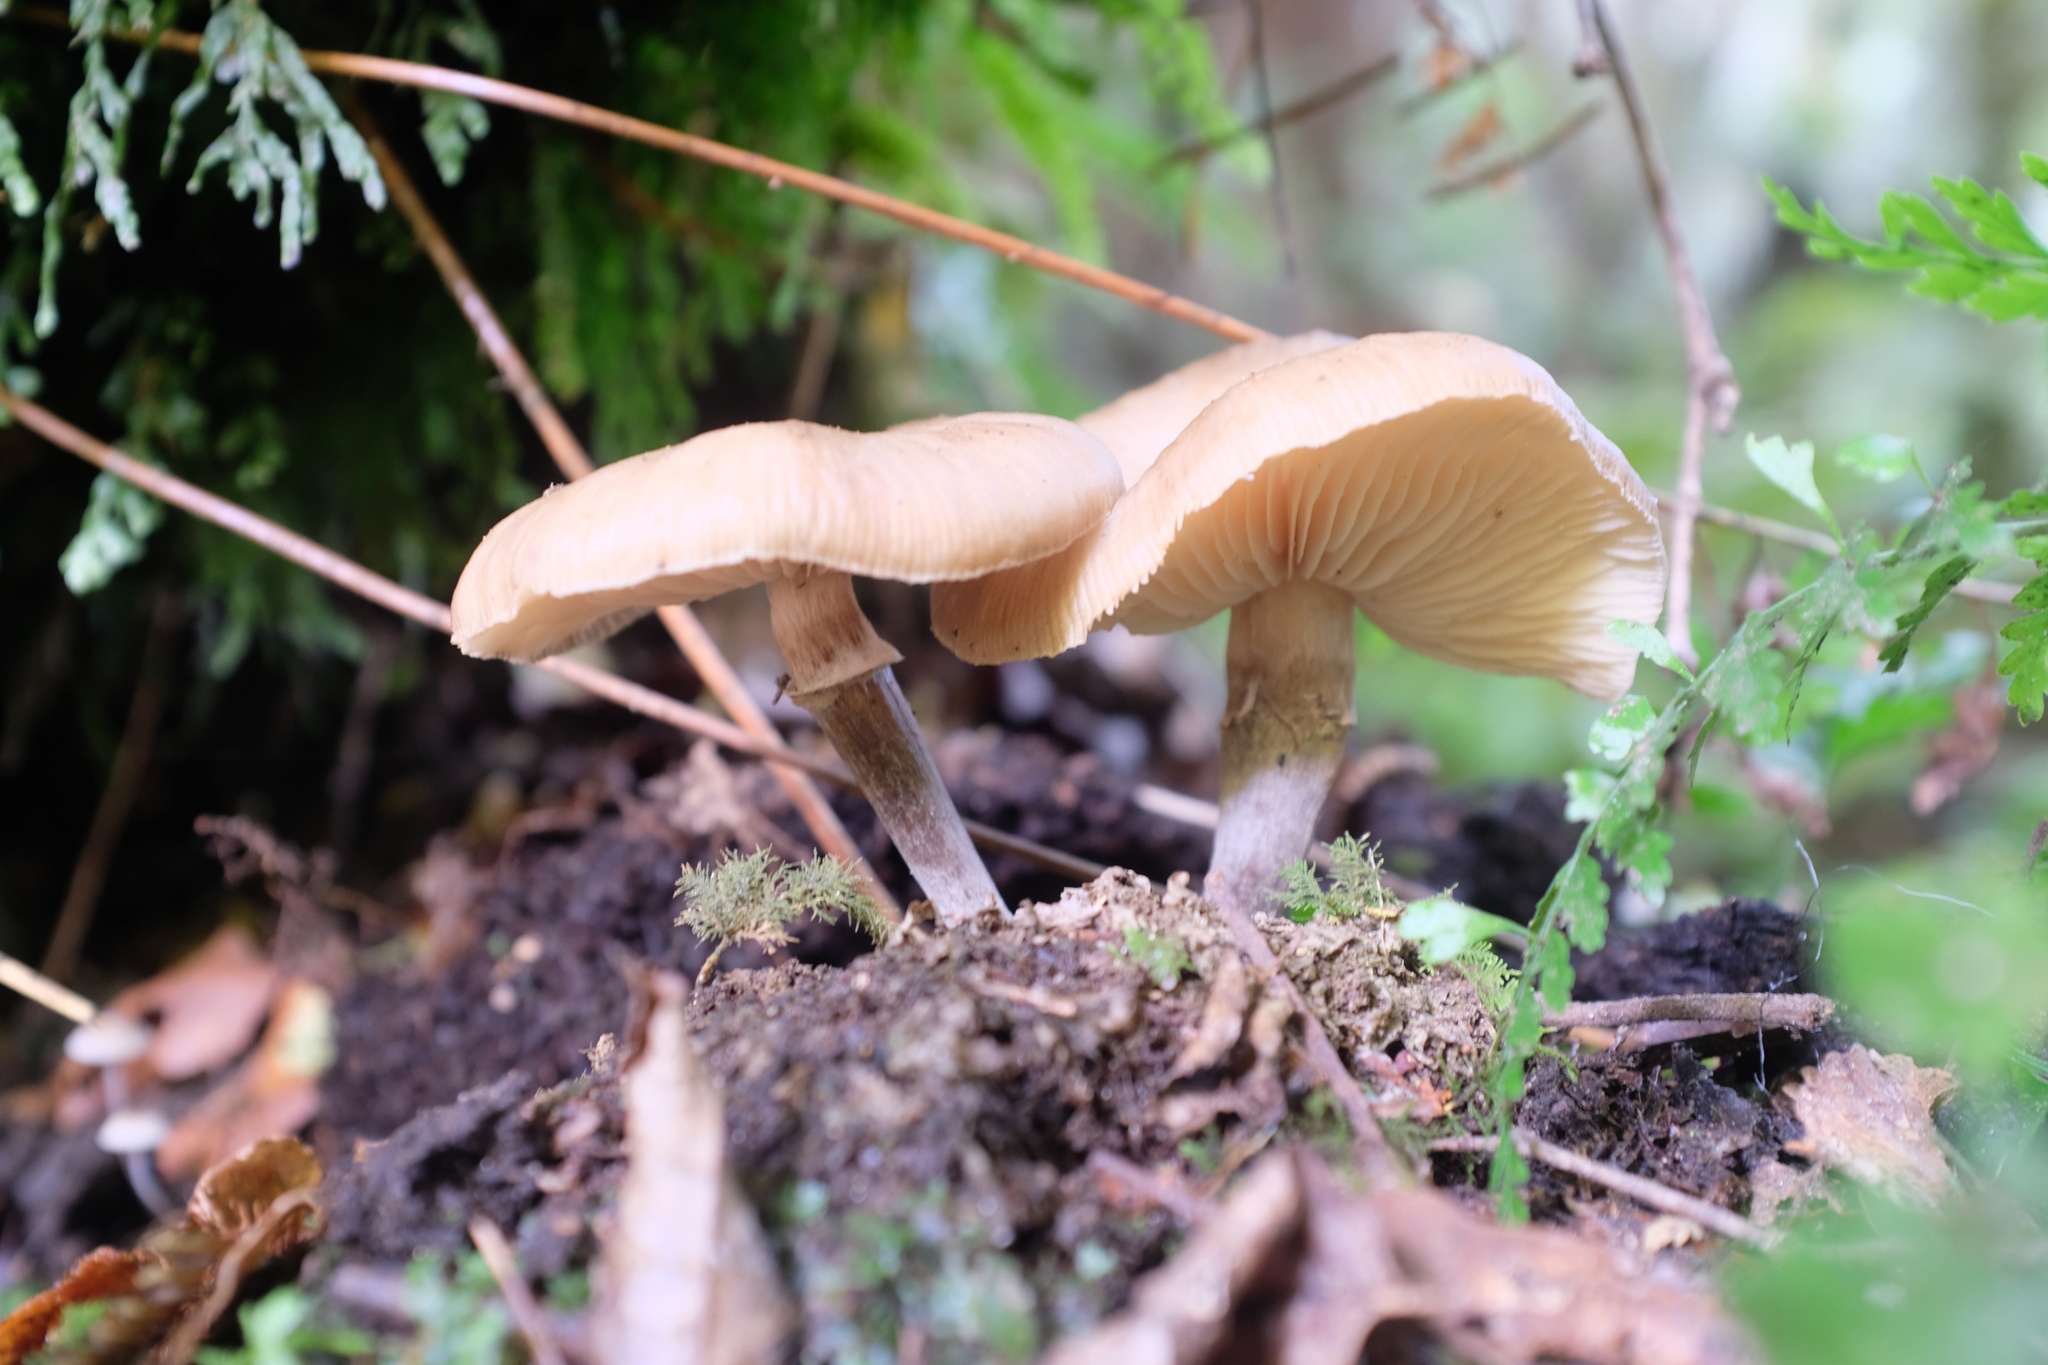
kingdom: Fungi
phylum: Basidiomycota
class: Agaricomycetes
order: Agaricales
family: Physalacriaceae
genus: Armillaria
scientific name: Armillaria novae-zelandiae
